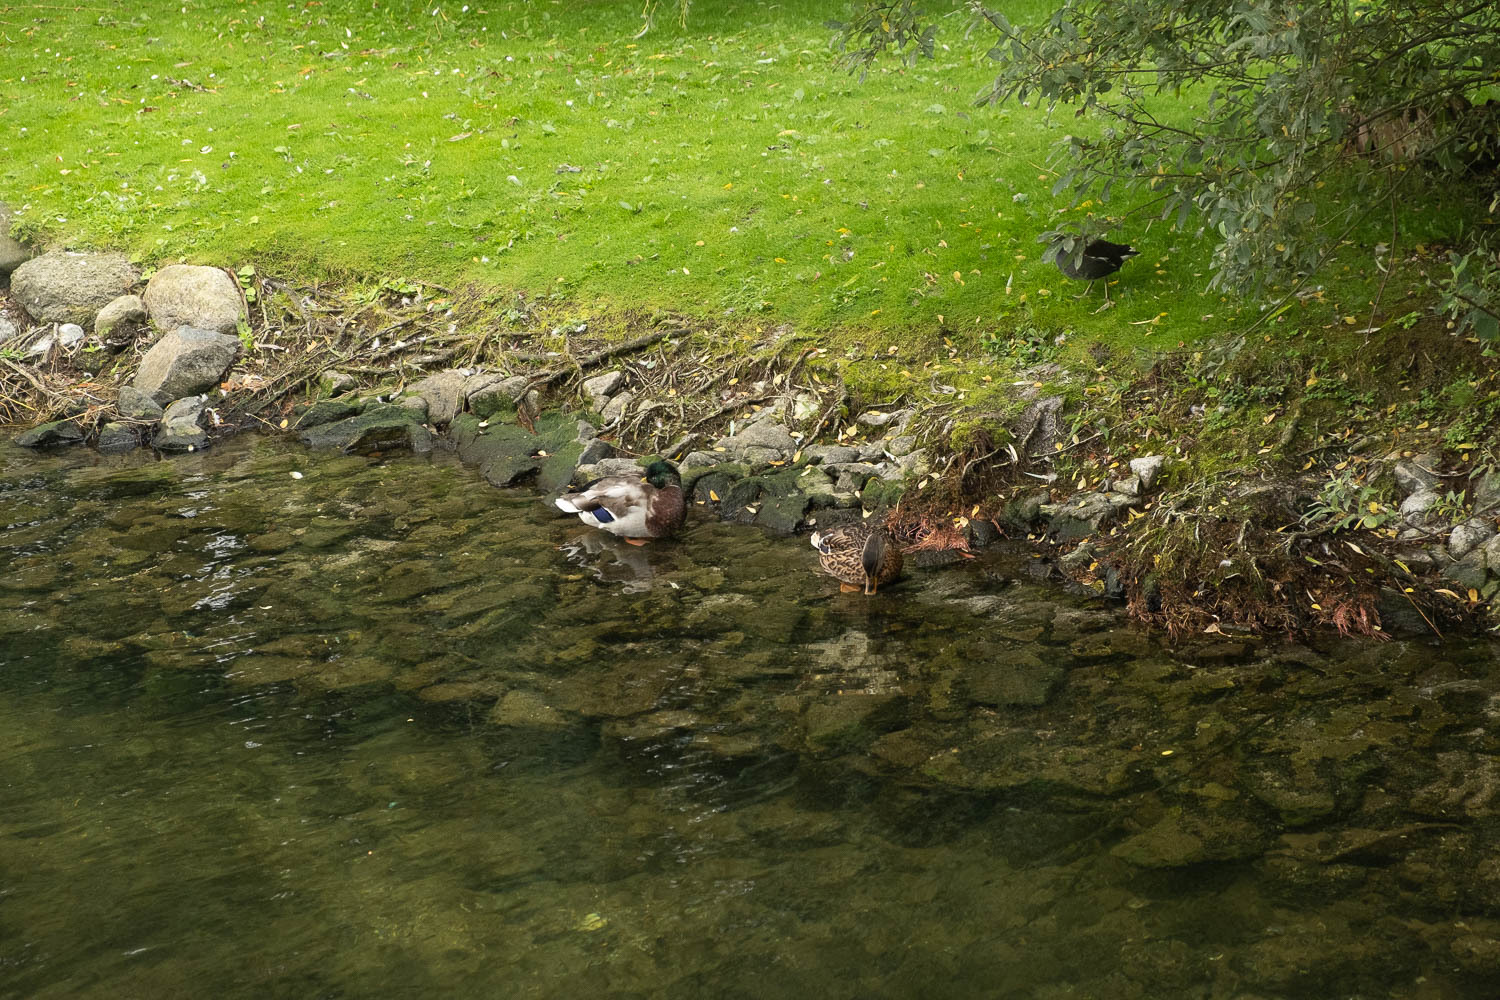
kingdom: Animalia
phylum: Chordata
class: Aves
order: Anseriformes
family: Anatidae
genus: Anas
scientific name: Anas platyrhynchos
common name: Mallard
